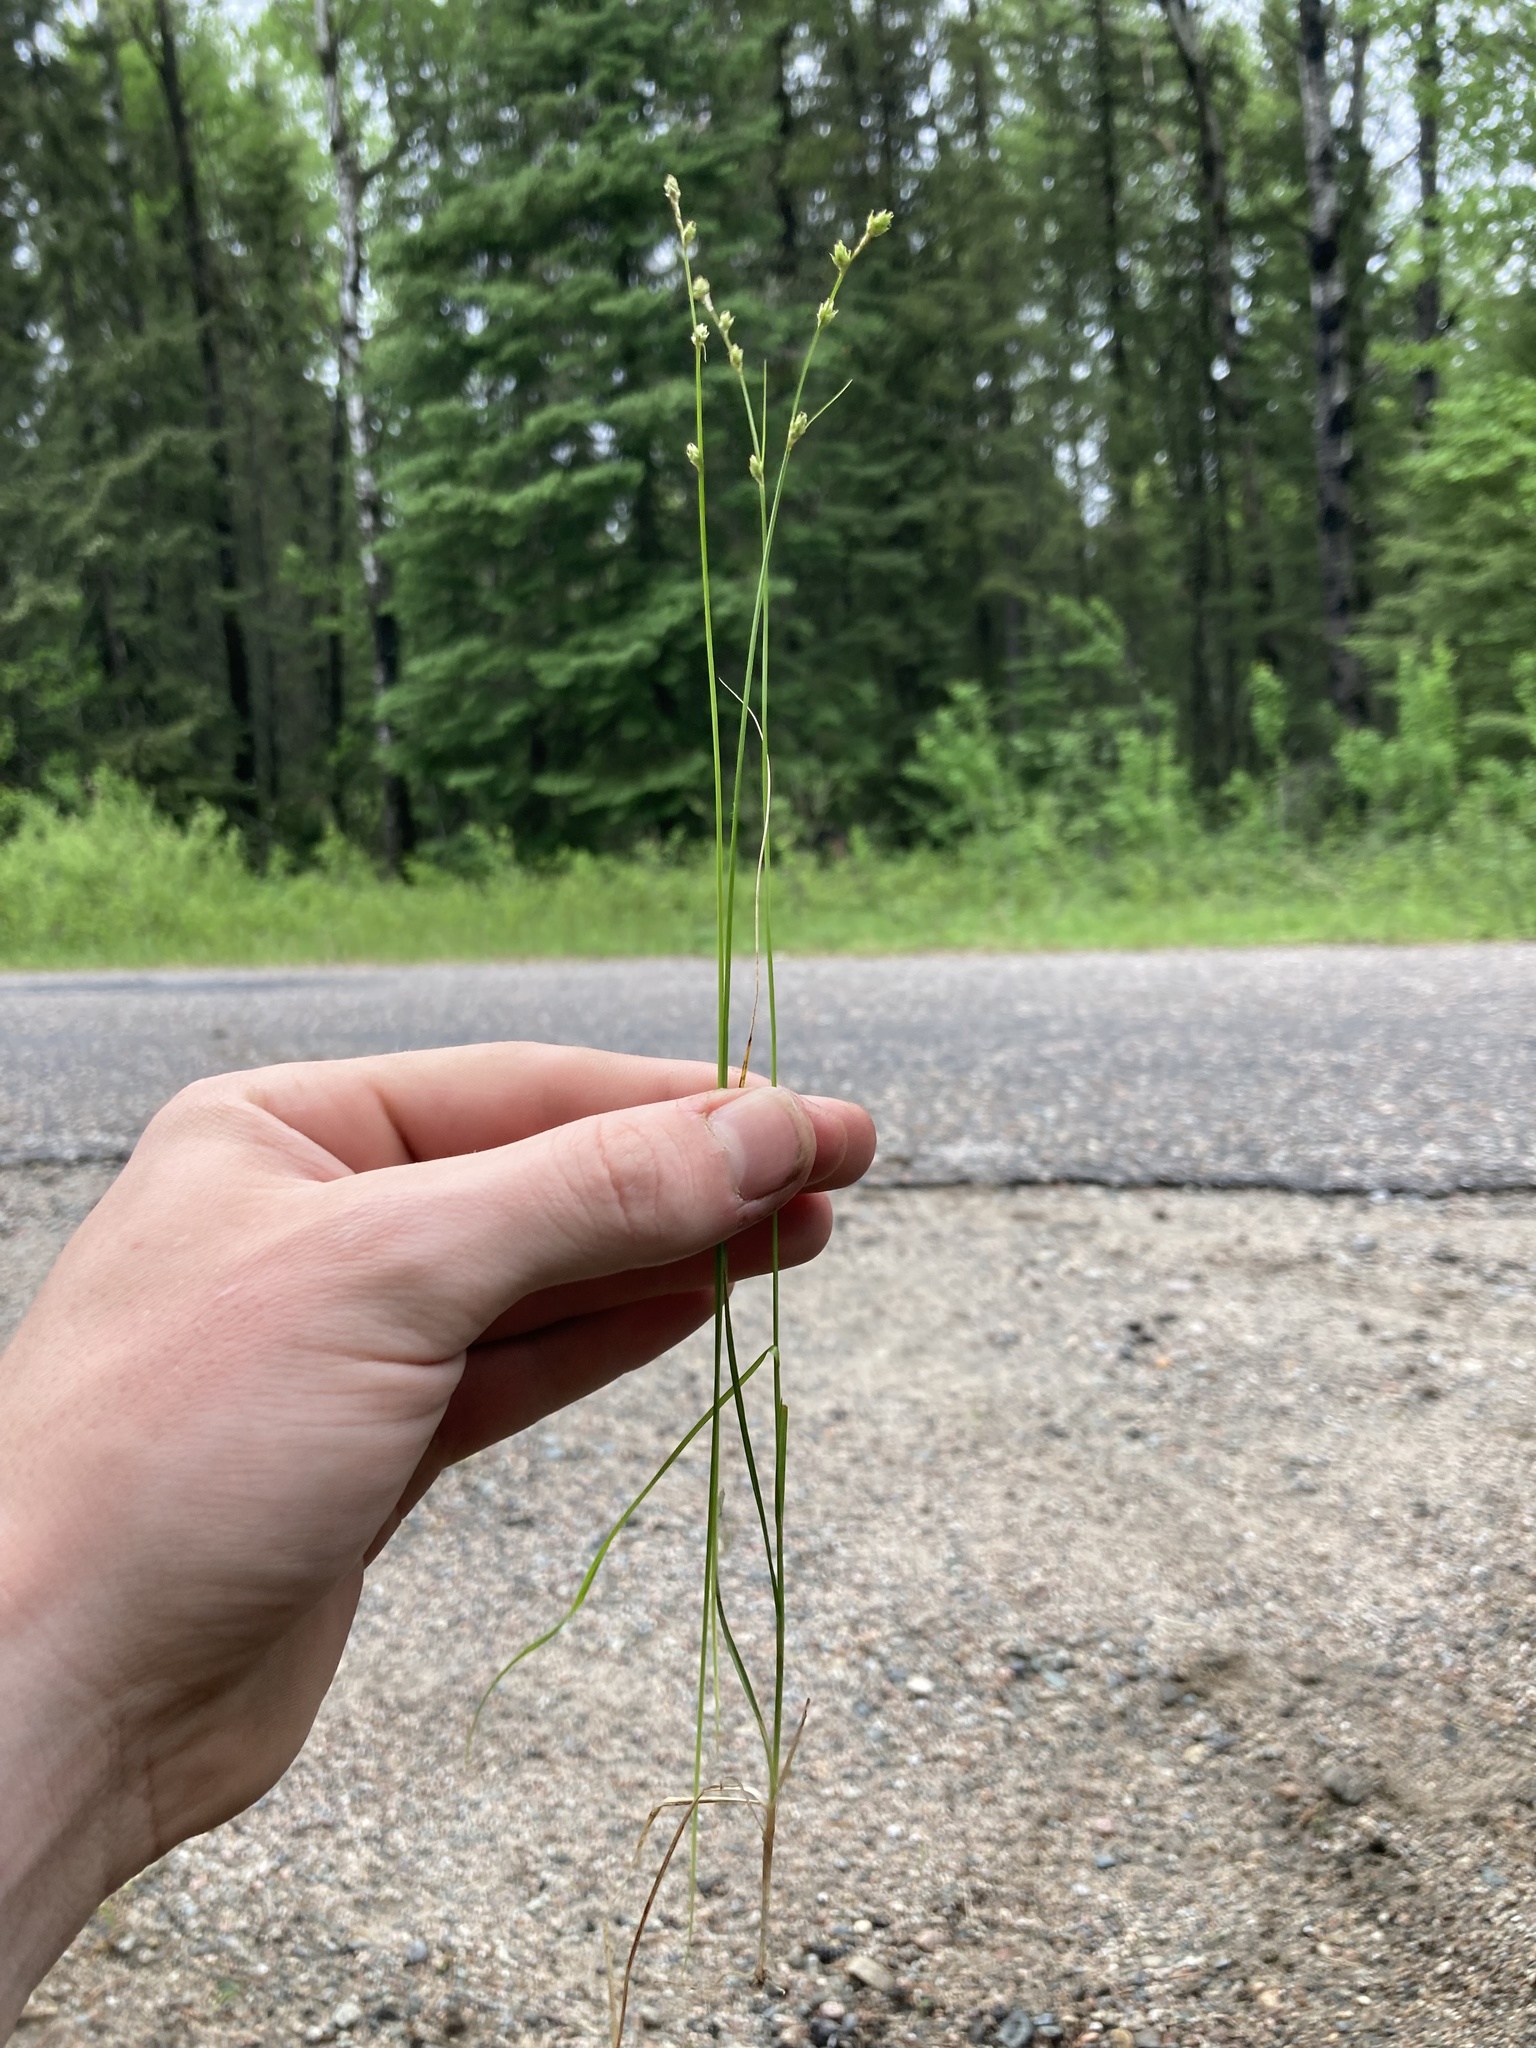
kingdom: Plantae
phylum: Tracheophyta
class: Liliopsida
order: Poales
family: Cyperaceae
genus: Carex
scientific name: Carex brunnescens
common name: Brown sedge
